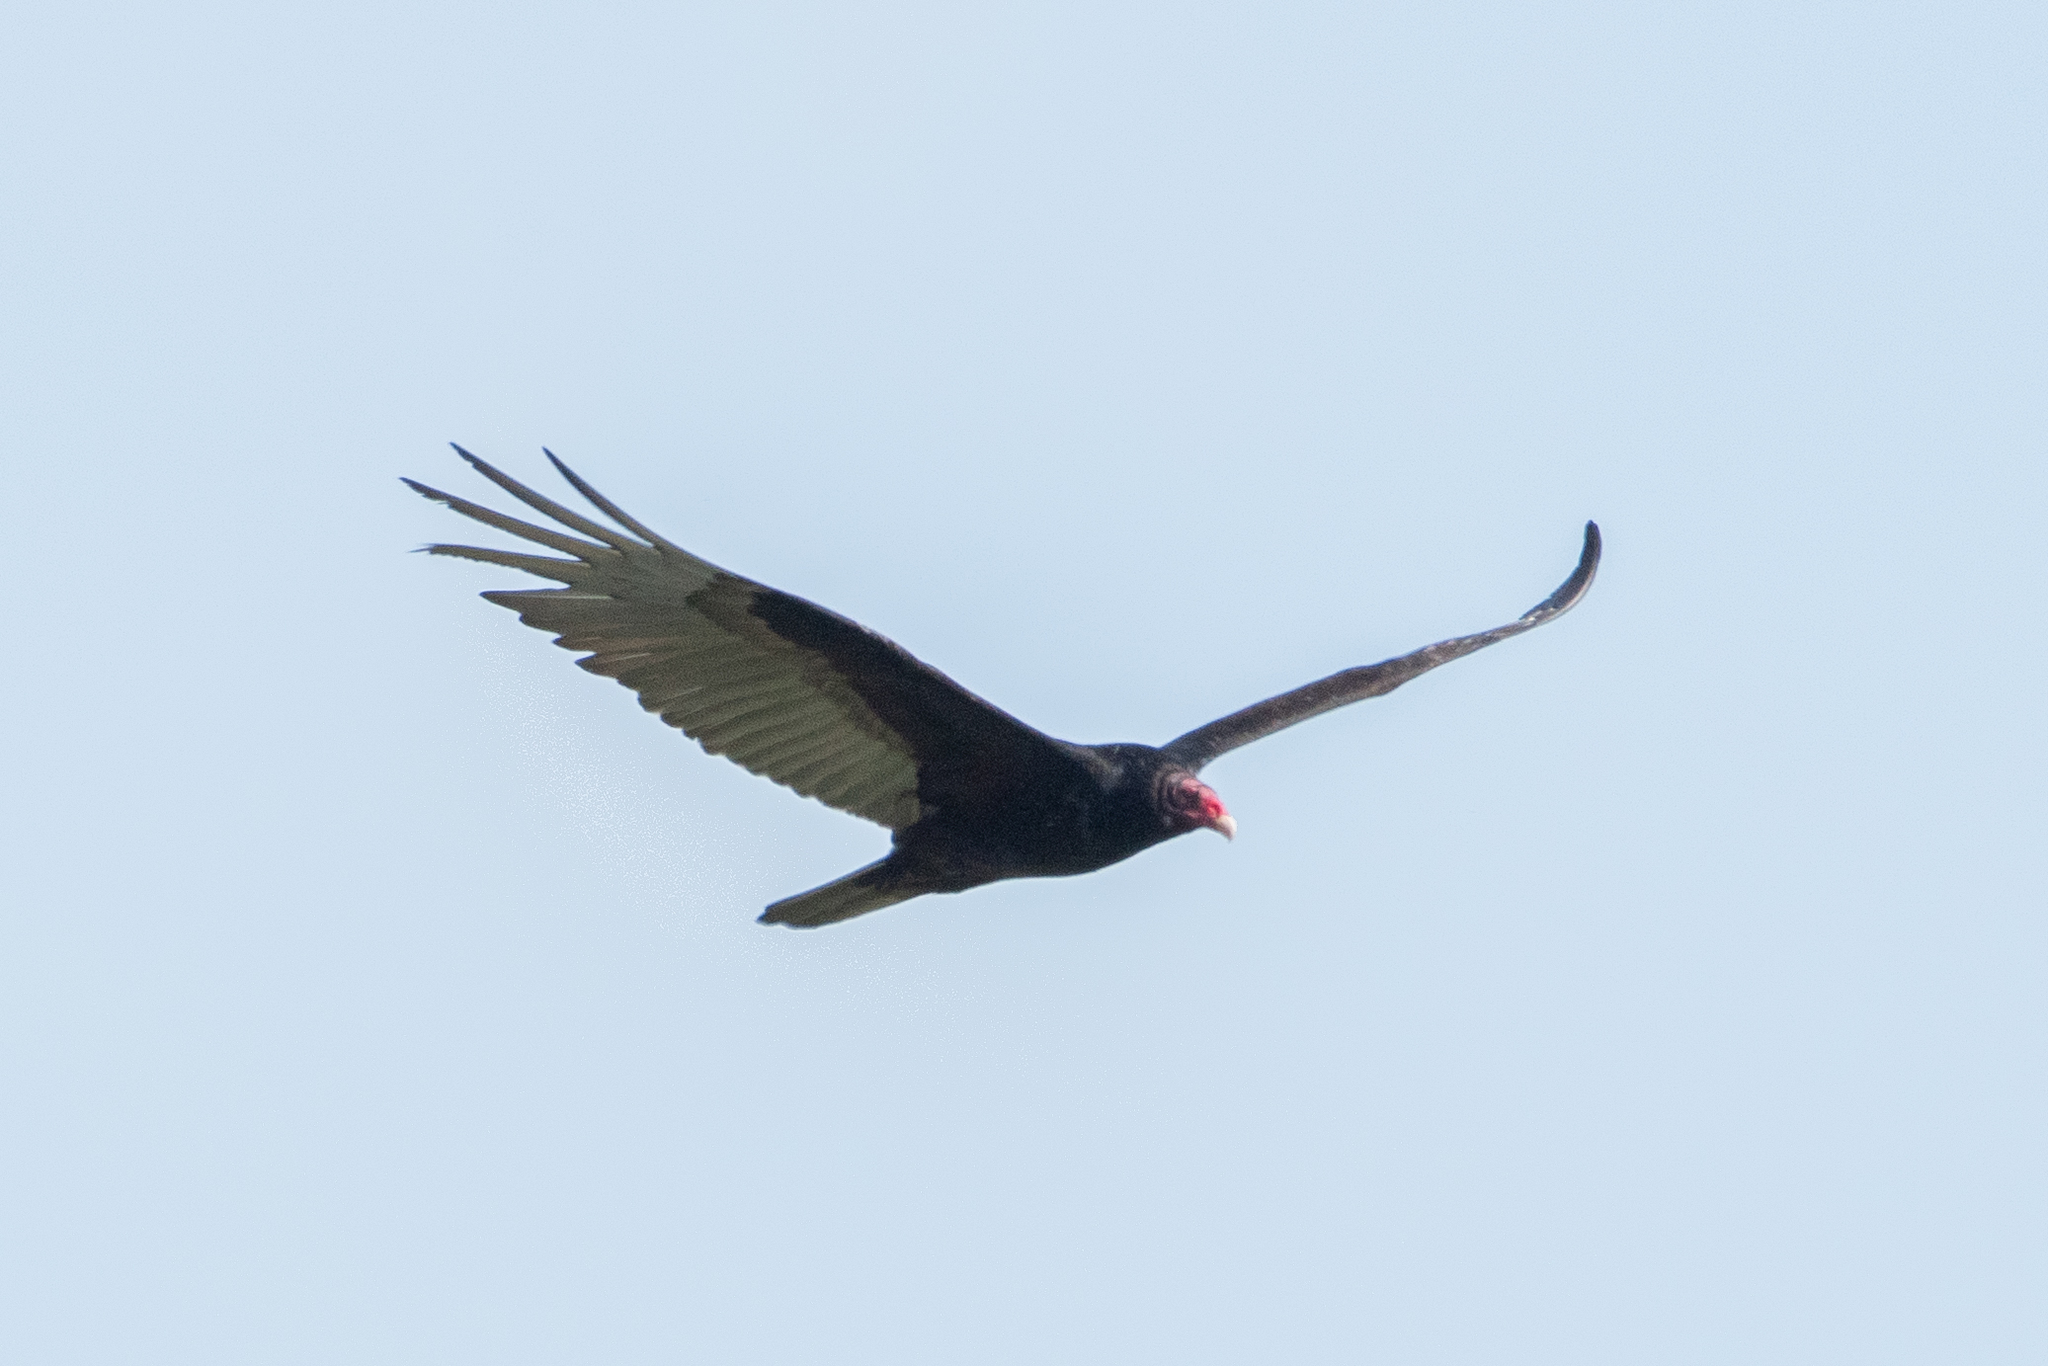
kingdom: Animalia
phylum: Chordata
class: Aves
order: Accipitriformes
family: Cathartidae
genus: Cathartes
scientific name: Cathartes aura
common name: Turkey vulture
